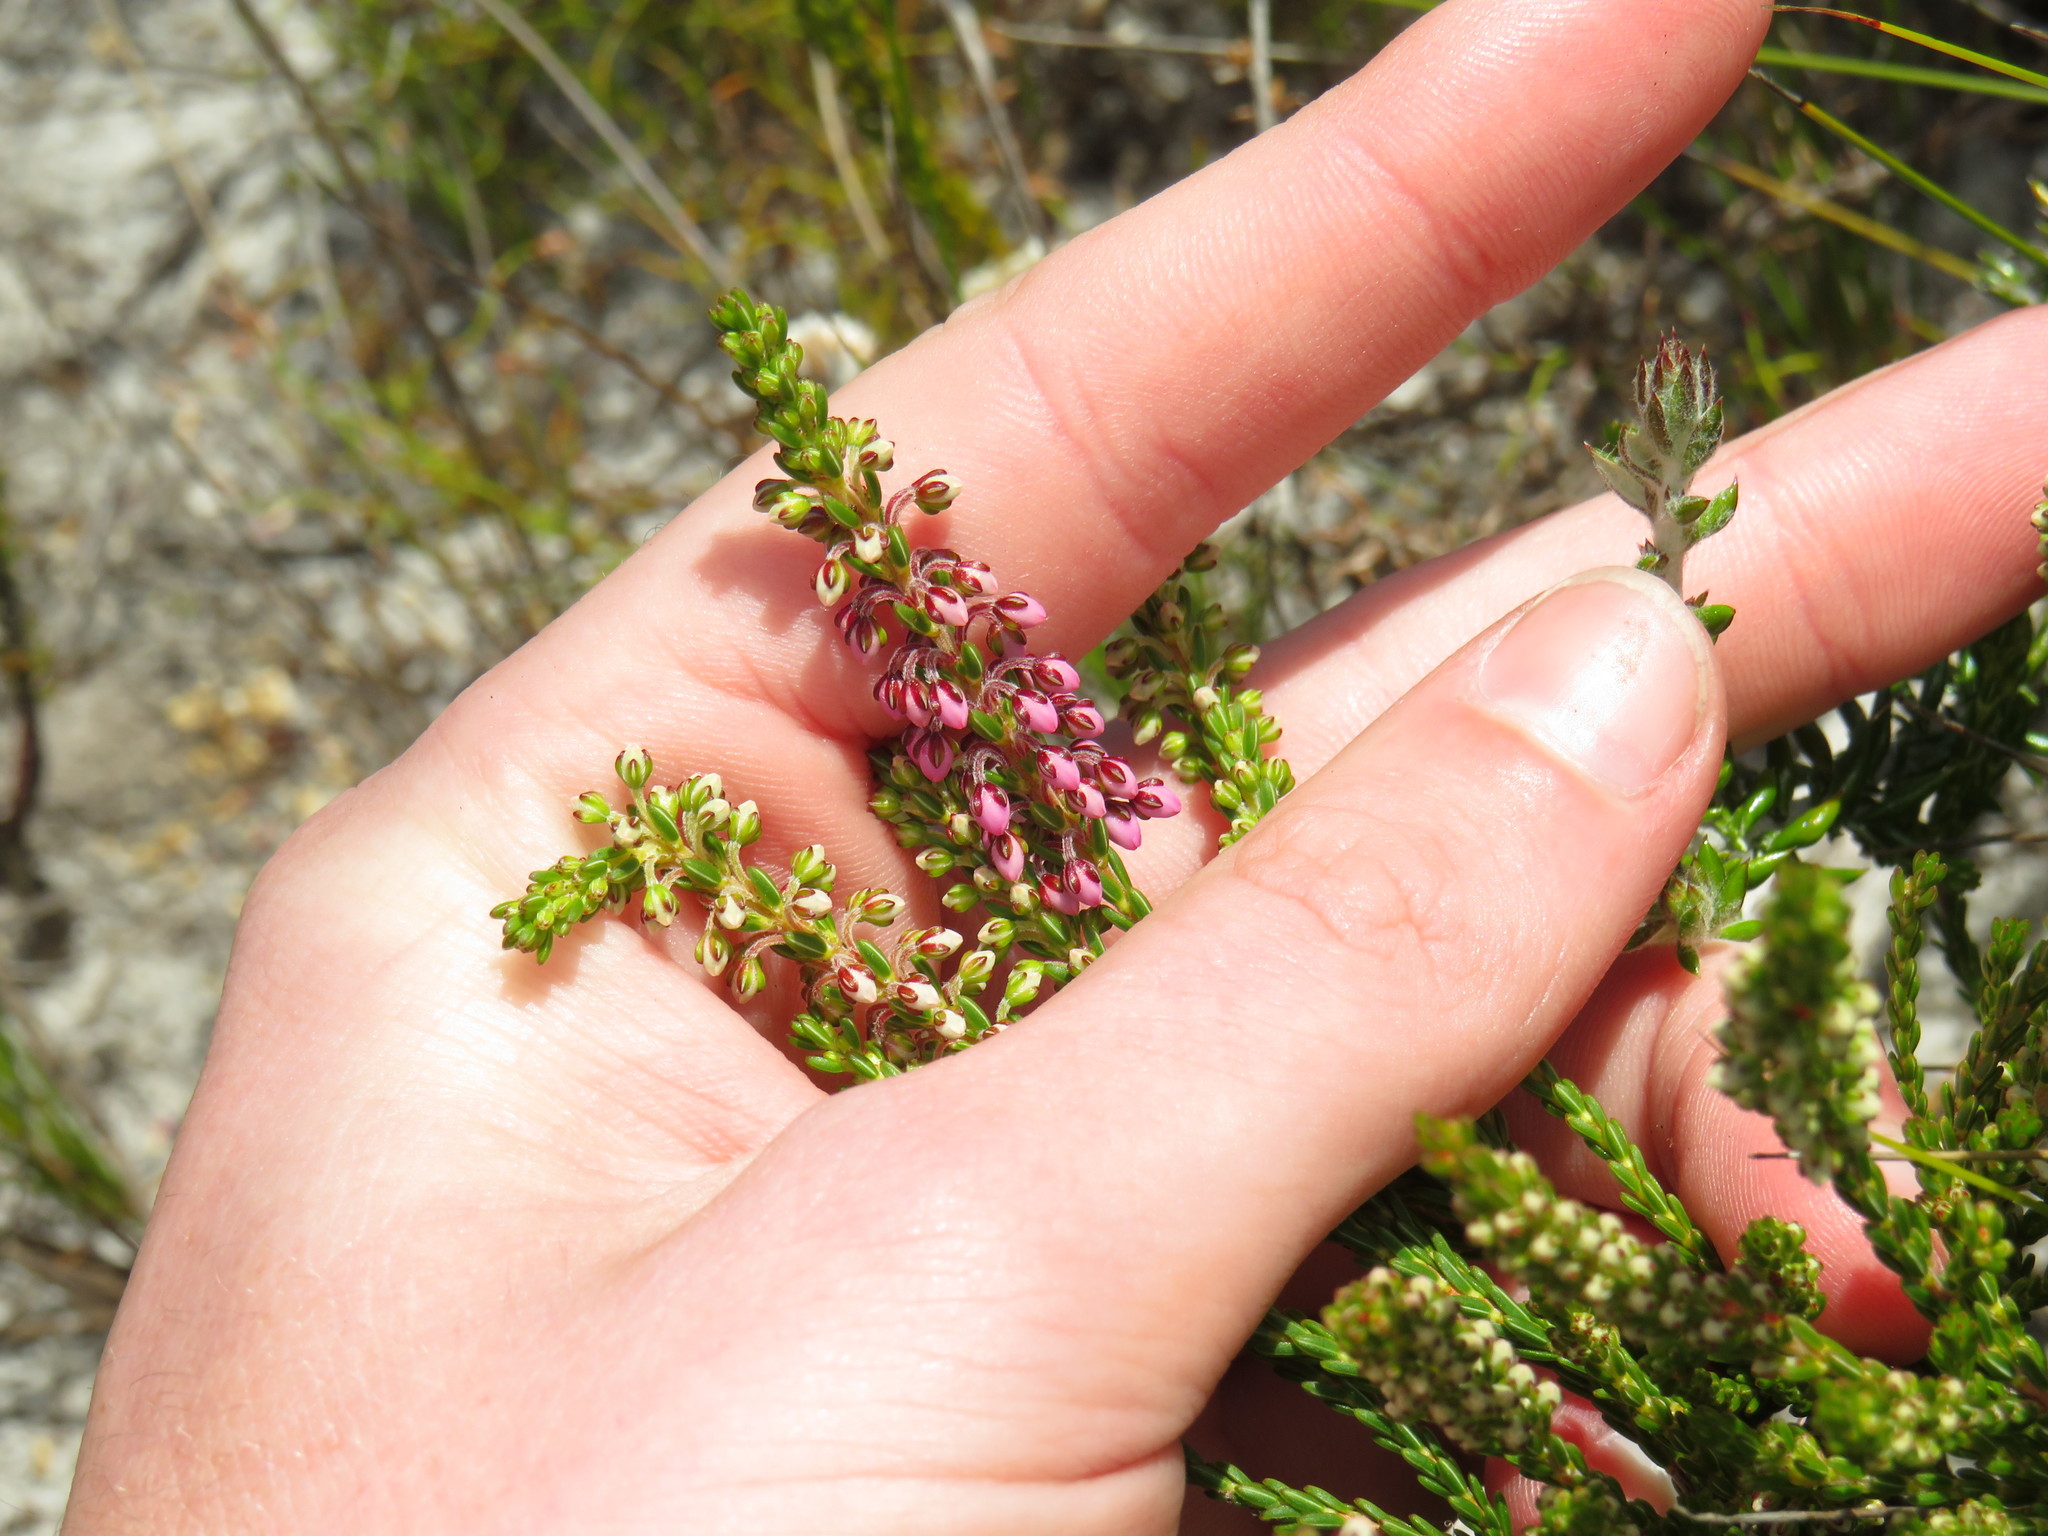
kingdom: Plantae
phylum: Tracheophyta
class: Magnoliopsida
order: Ericales
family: Ericaceae
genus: Erica
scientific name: Erica pulchella
